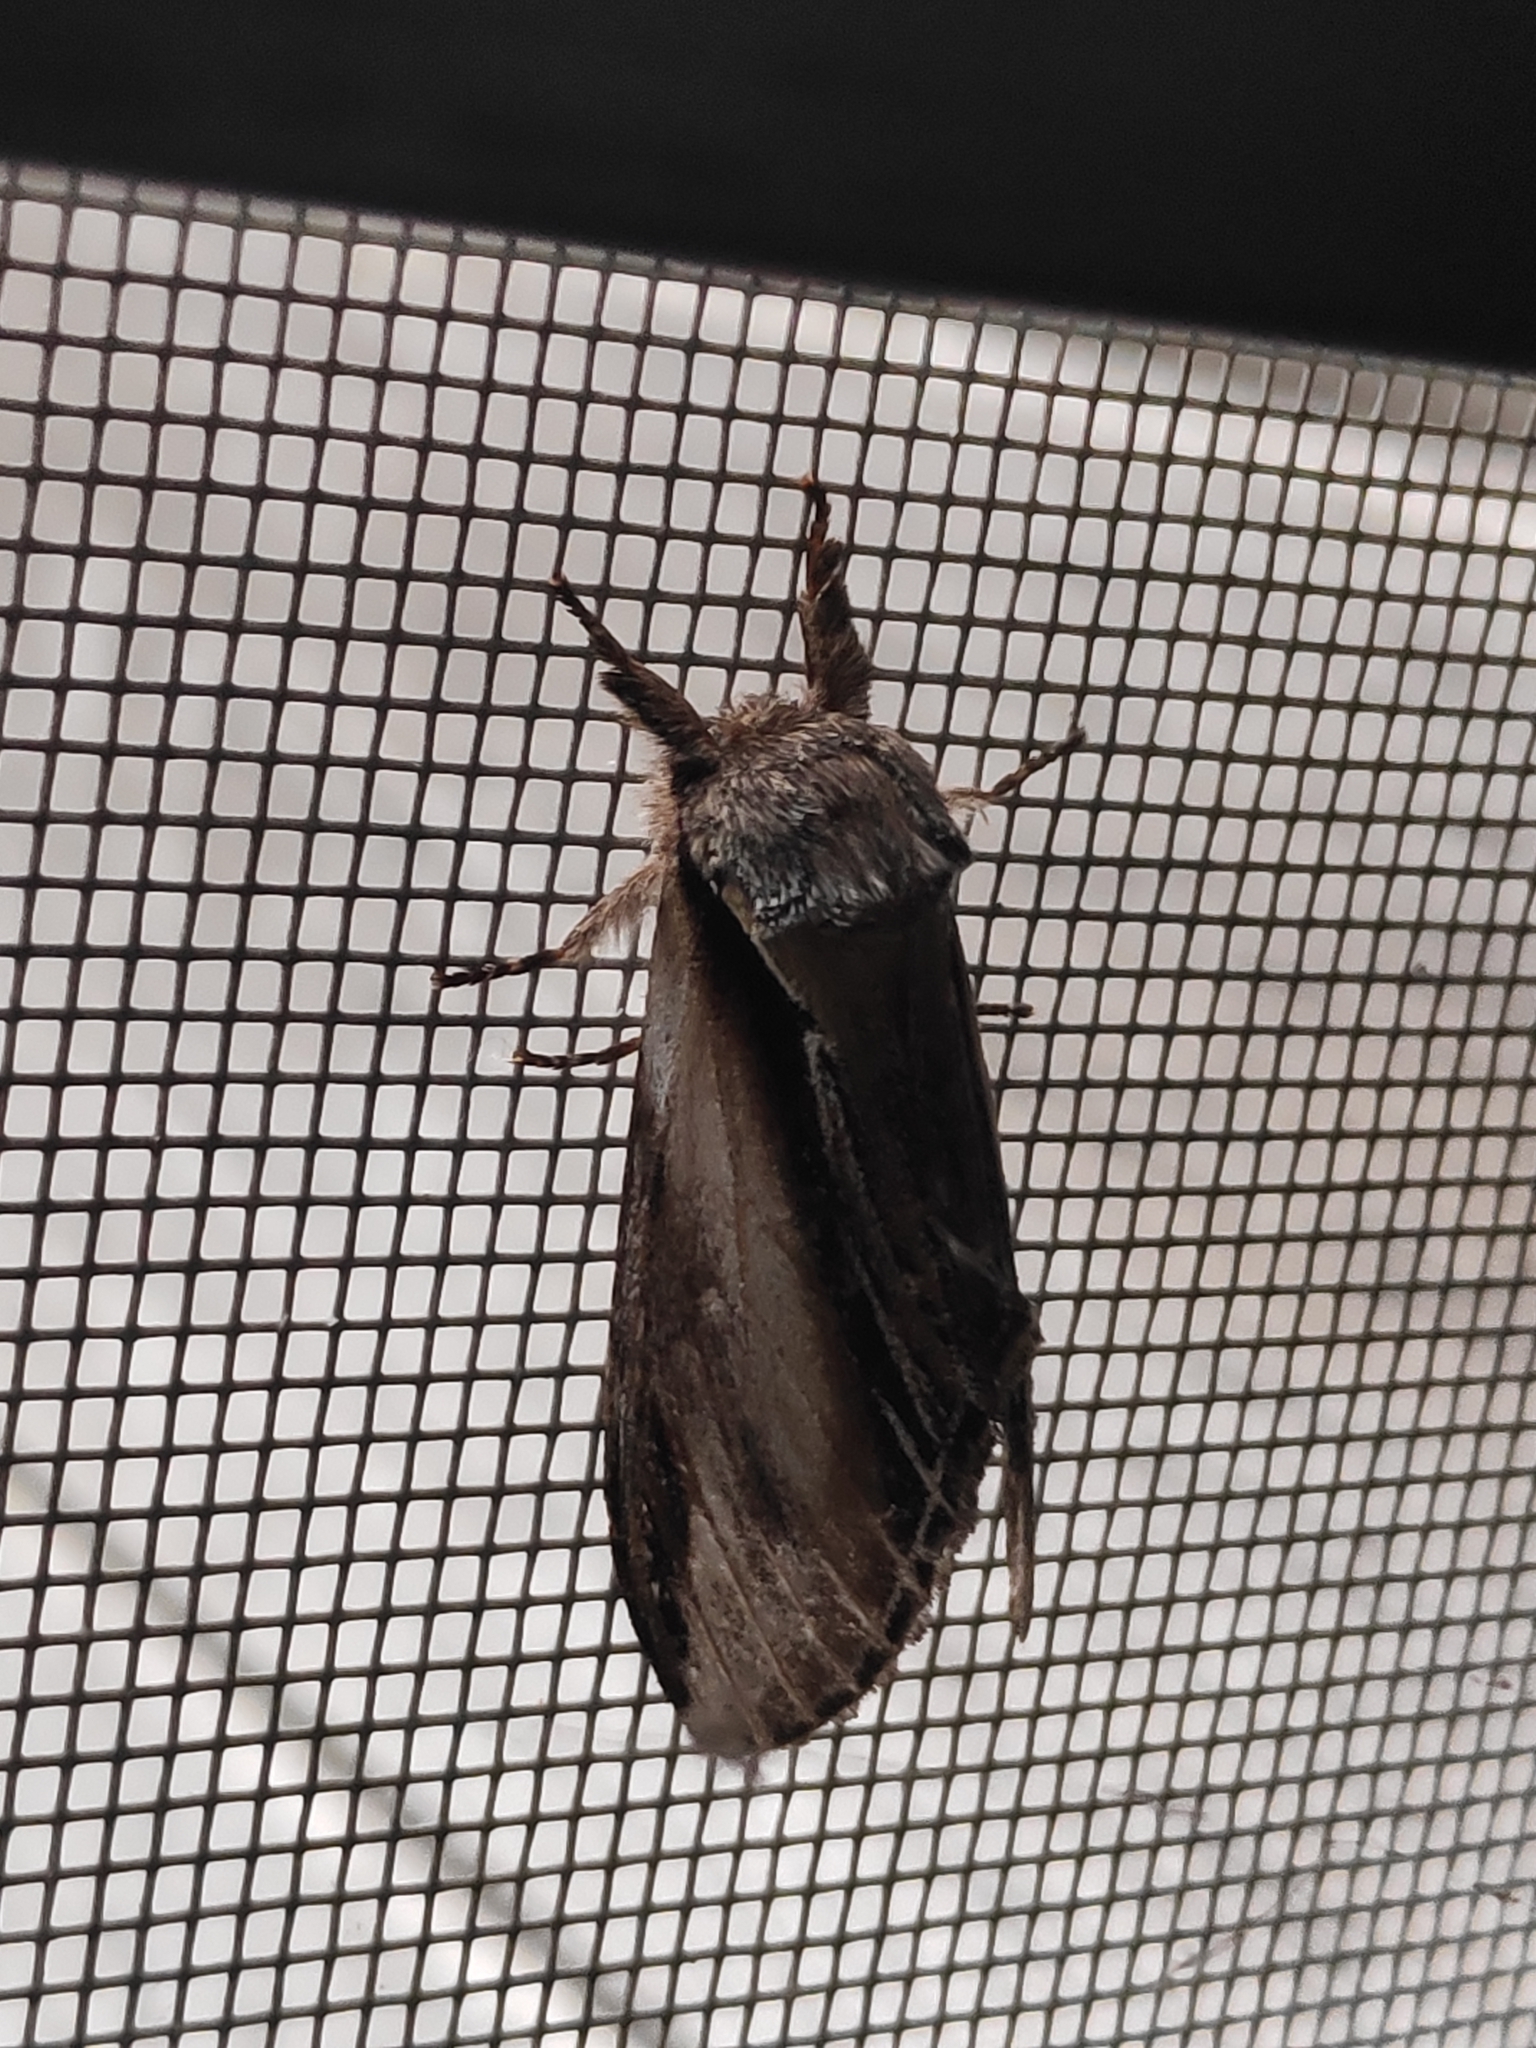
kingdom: Animalia
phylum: Arthropoda
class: Insecta
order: Lepidoptera
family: Notodontidae
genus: Pheosia
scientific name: Pheosia tremula
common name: Swallow prominent
